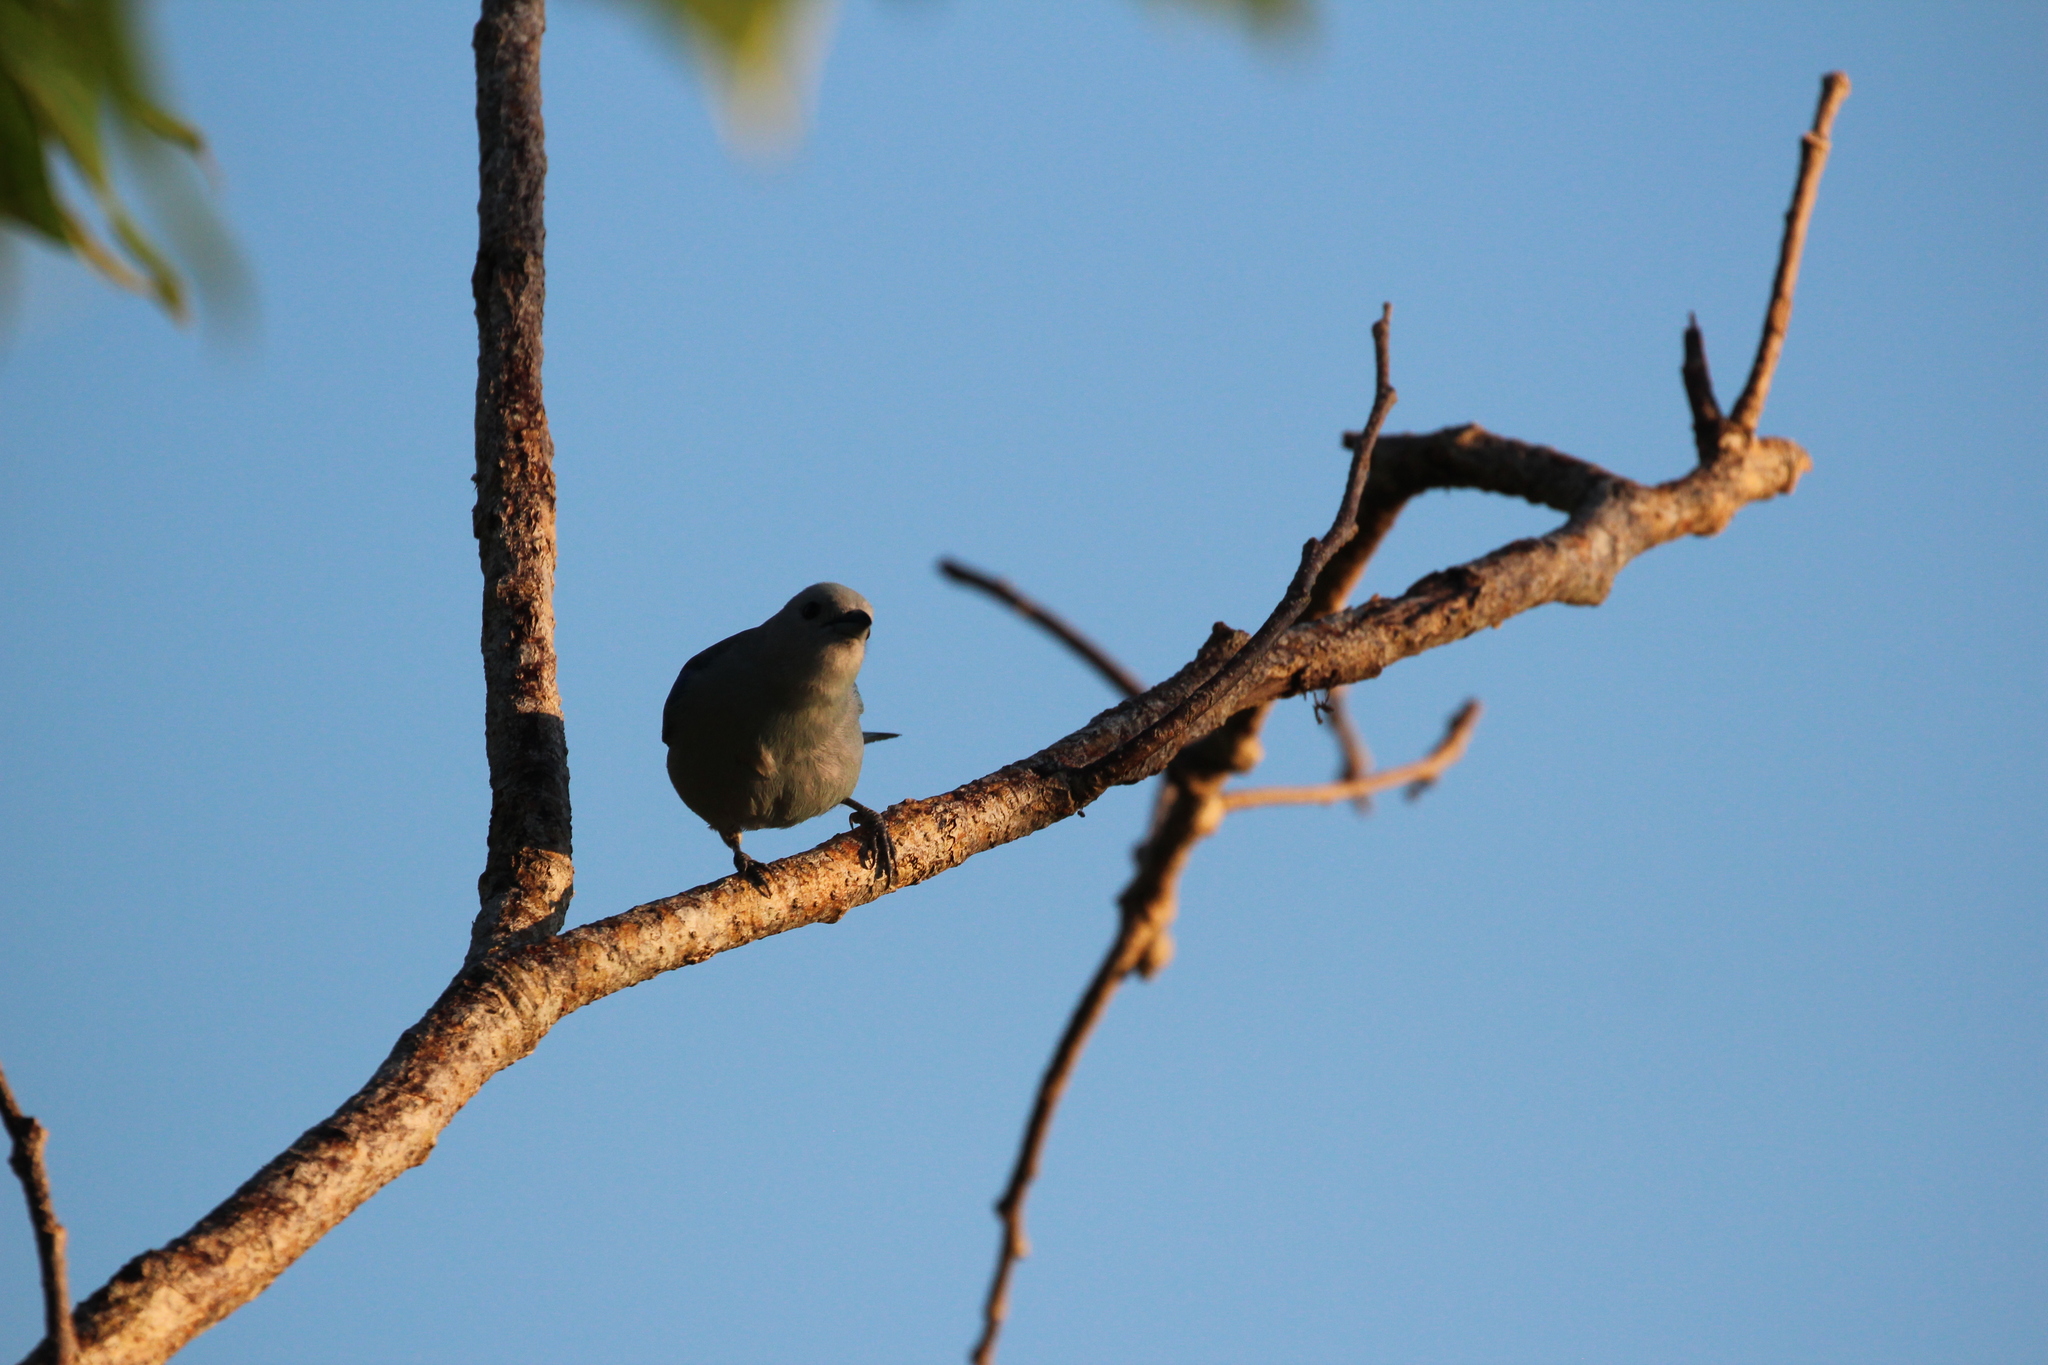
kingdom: Animalia
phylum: Chordata
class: Aves
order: Passeriformes
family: Thraupidae
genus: Thraupis
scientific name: Thraupis episcopus
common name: Blue-grey tanager
